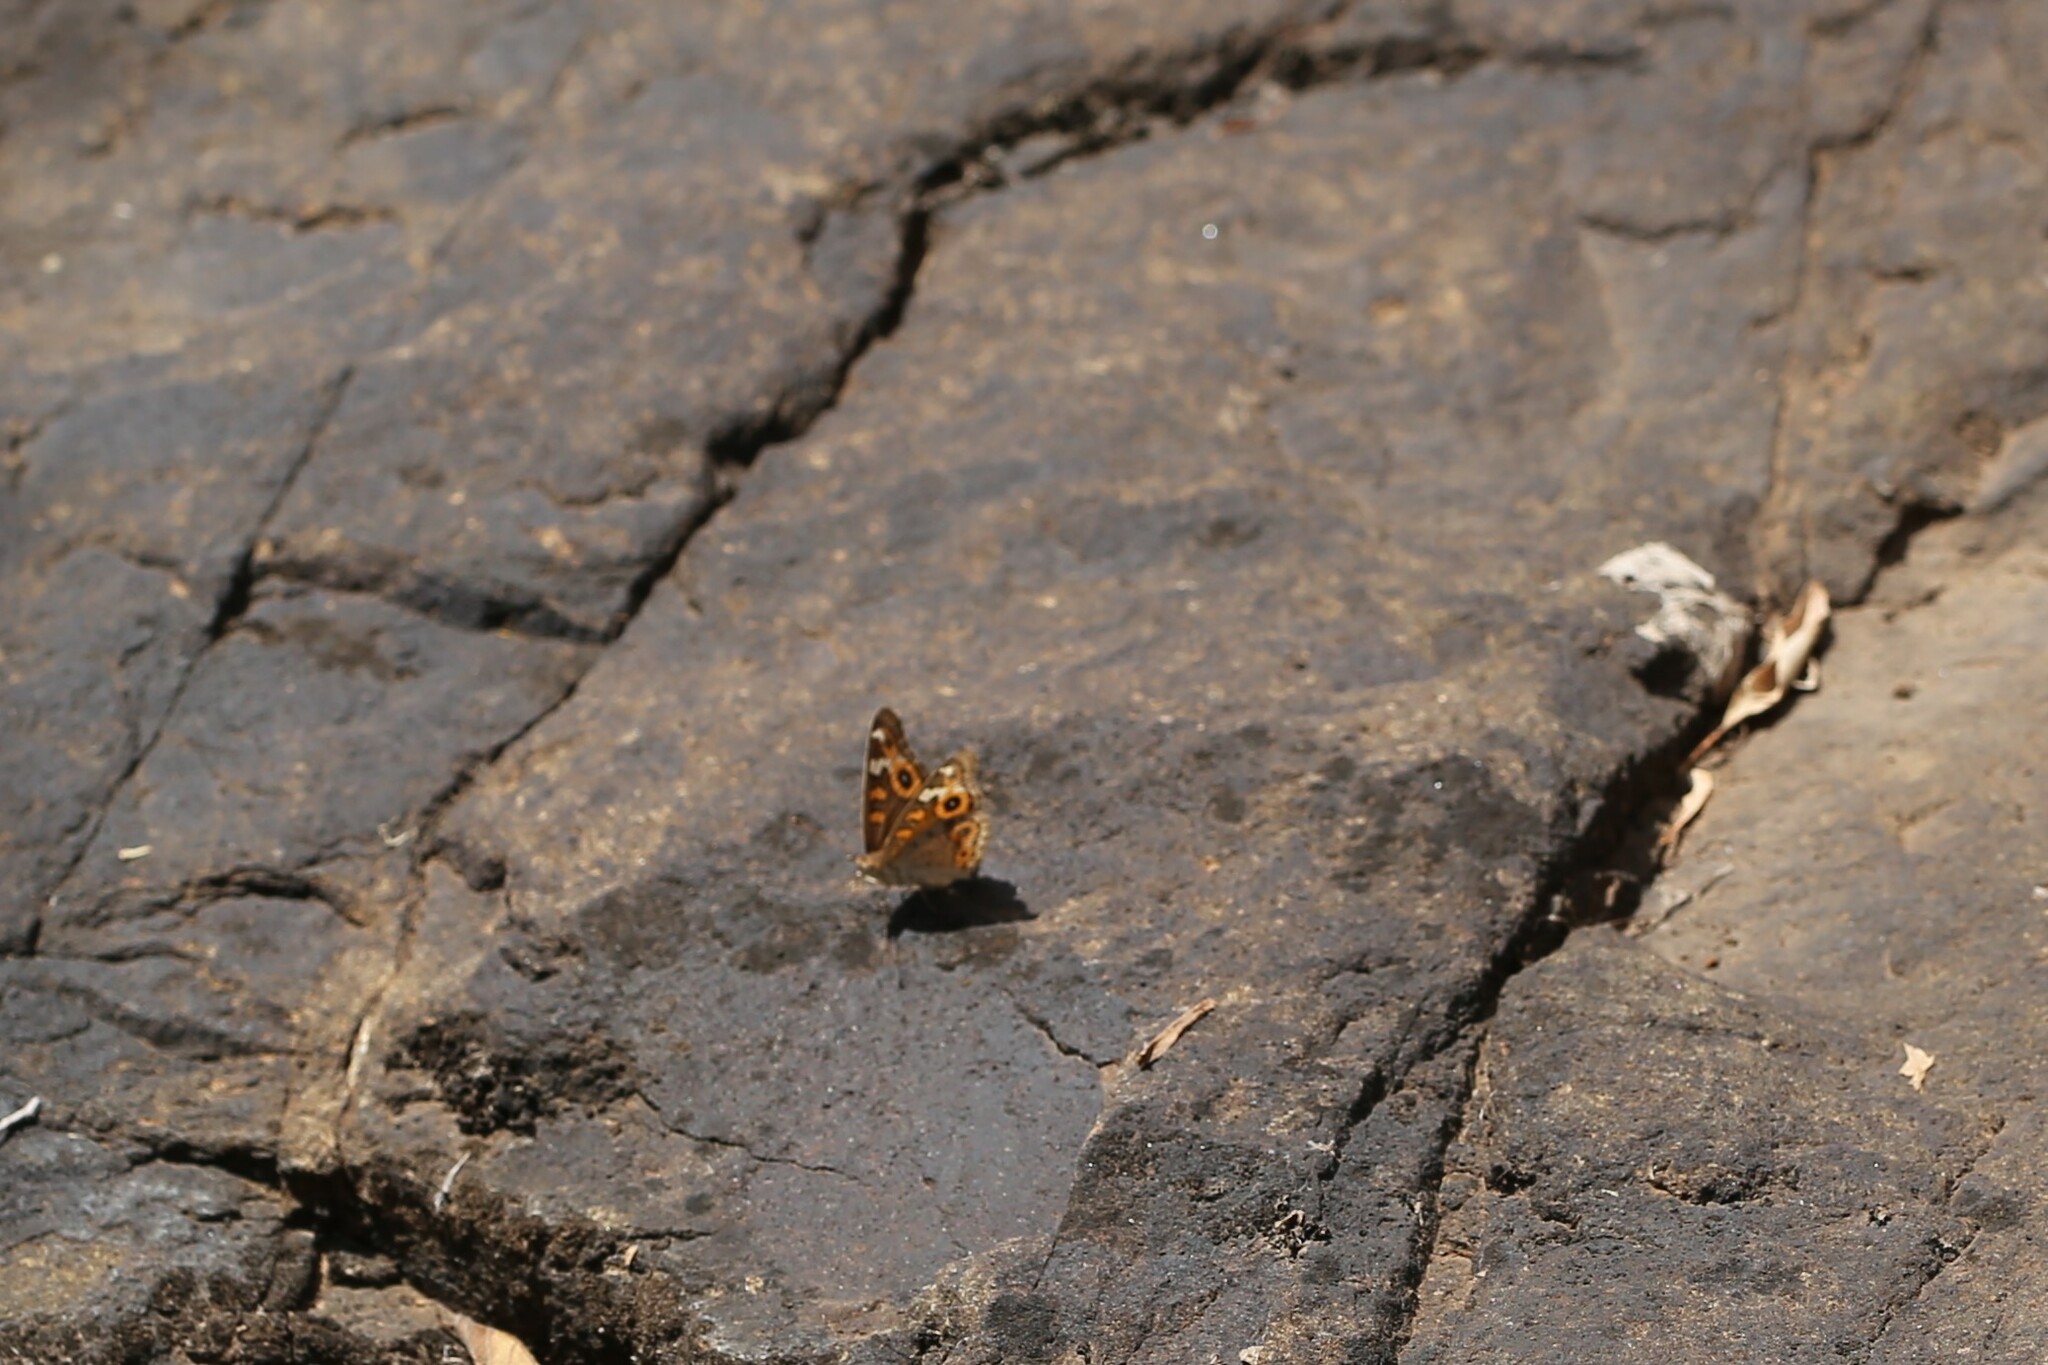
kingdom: Animalia
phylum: Arthropoda
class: Insecta
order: Lepidoptera
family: Nymphalidae
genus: Junonia
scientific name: Junonia villida
